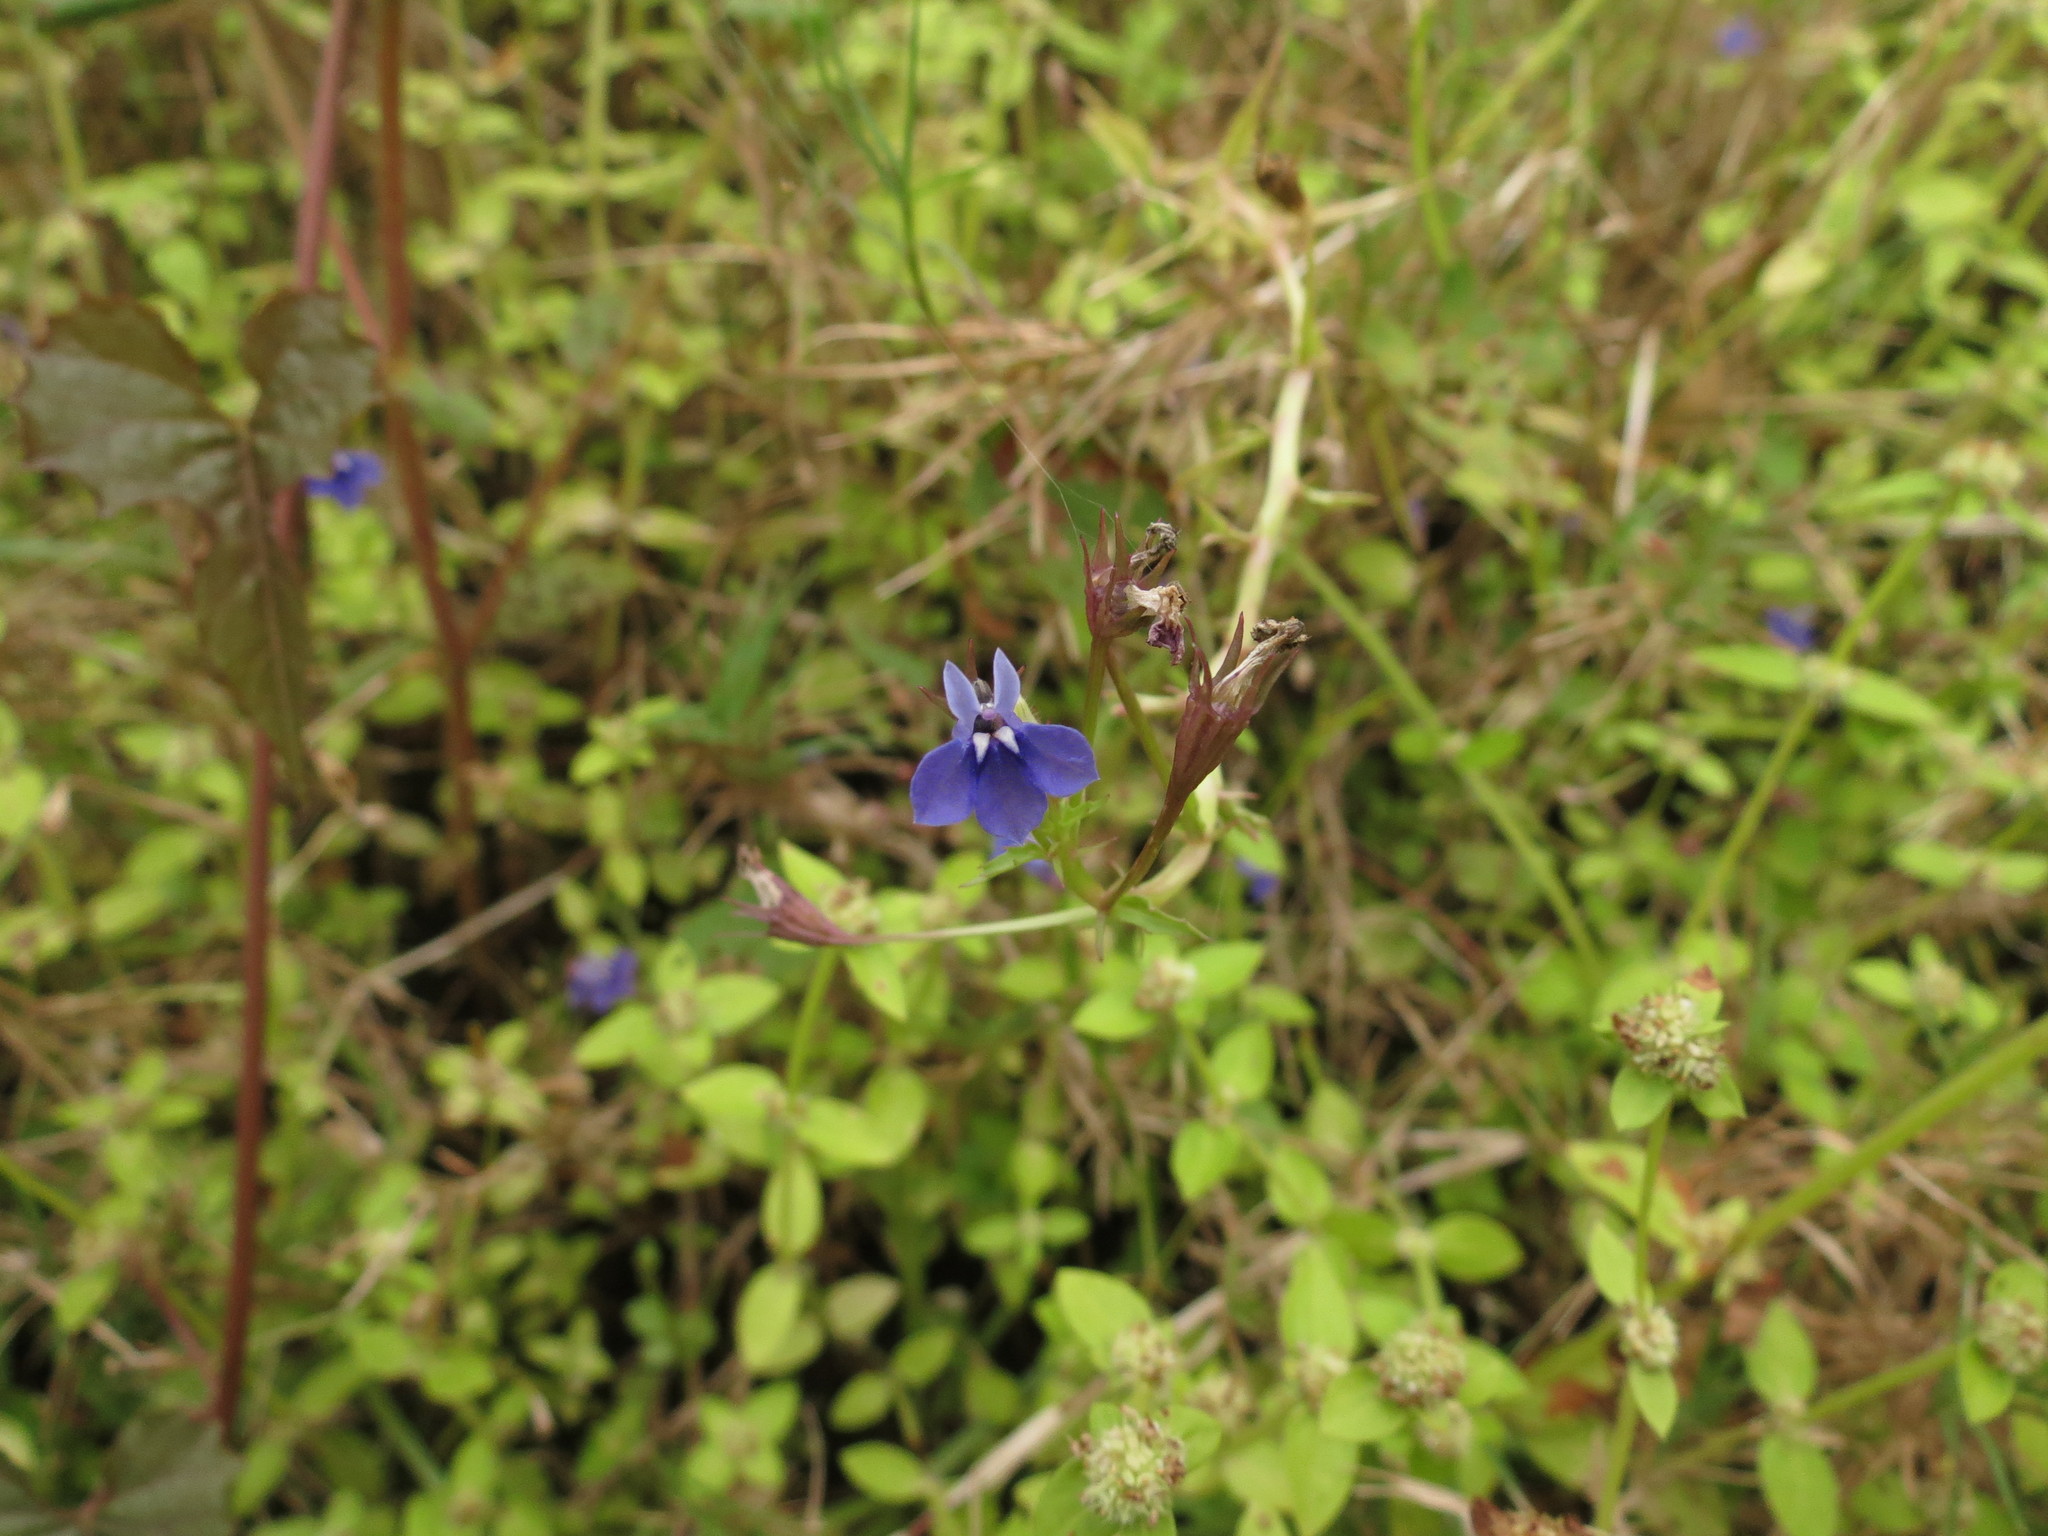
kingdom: Plantae
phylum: Tracheophyta
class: Magnoliopsida
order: Asterales
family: Campanulaceae
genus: Lobelia
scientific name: Lobelia alsinoides
